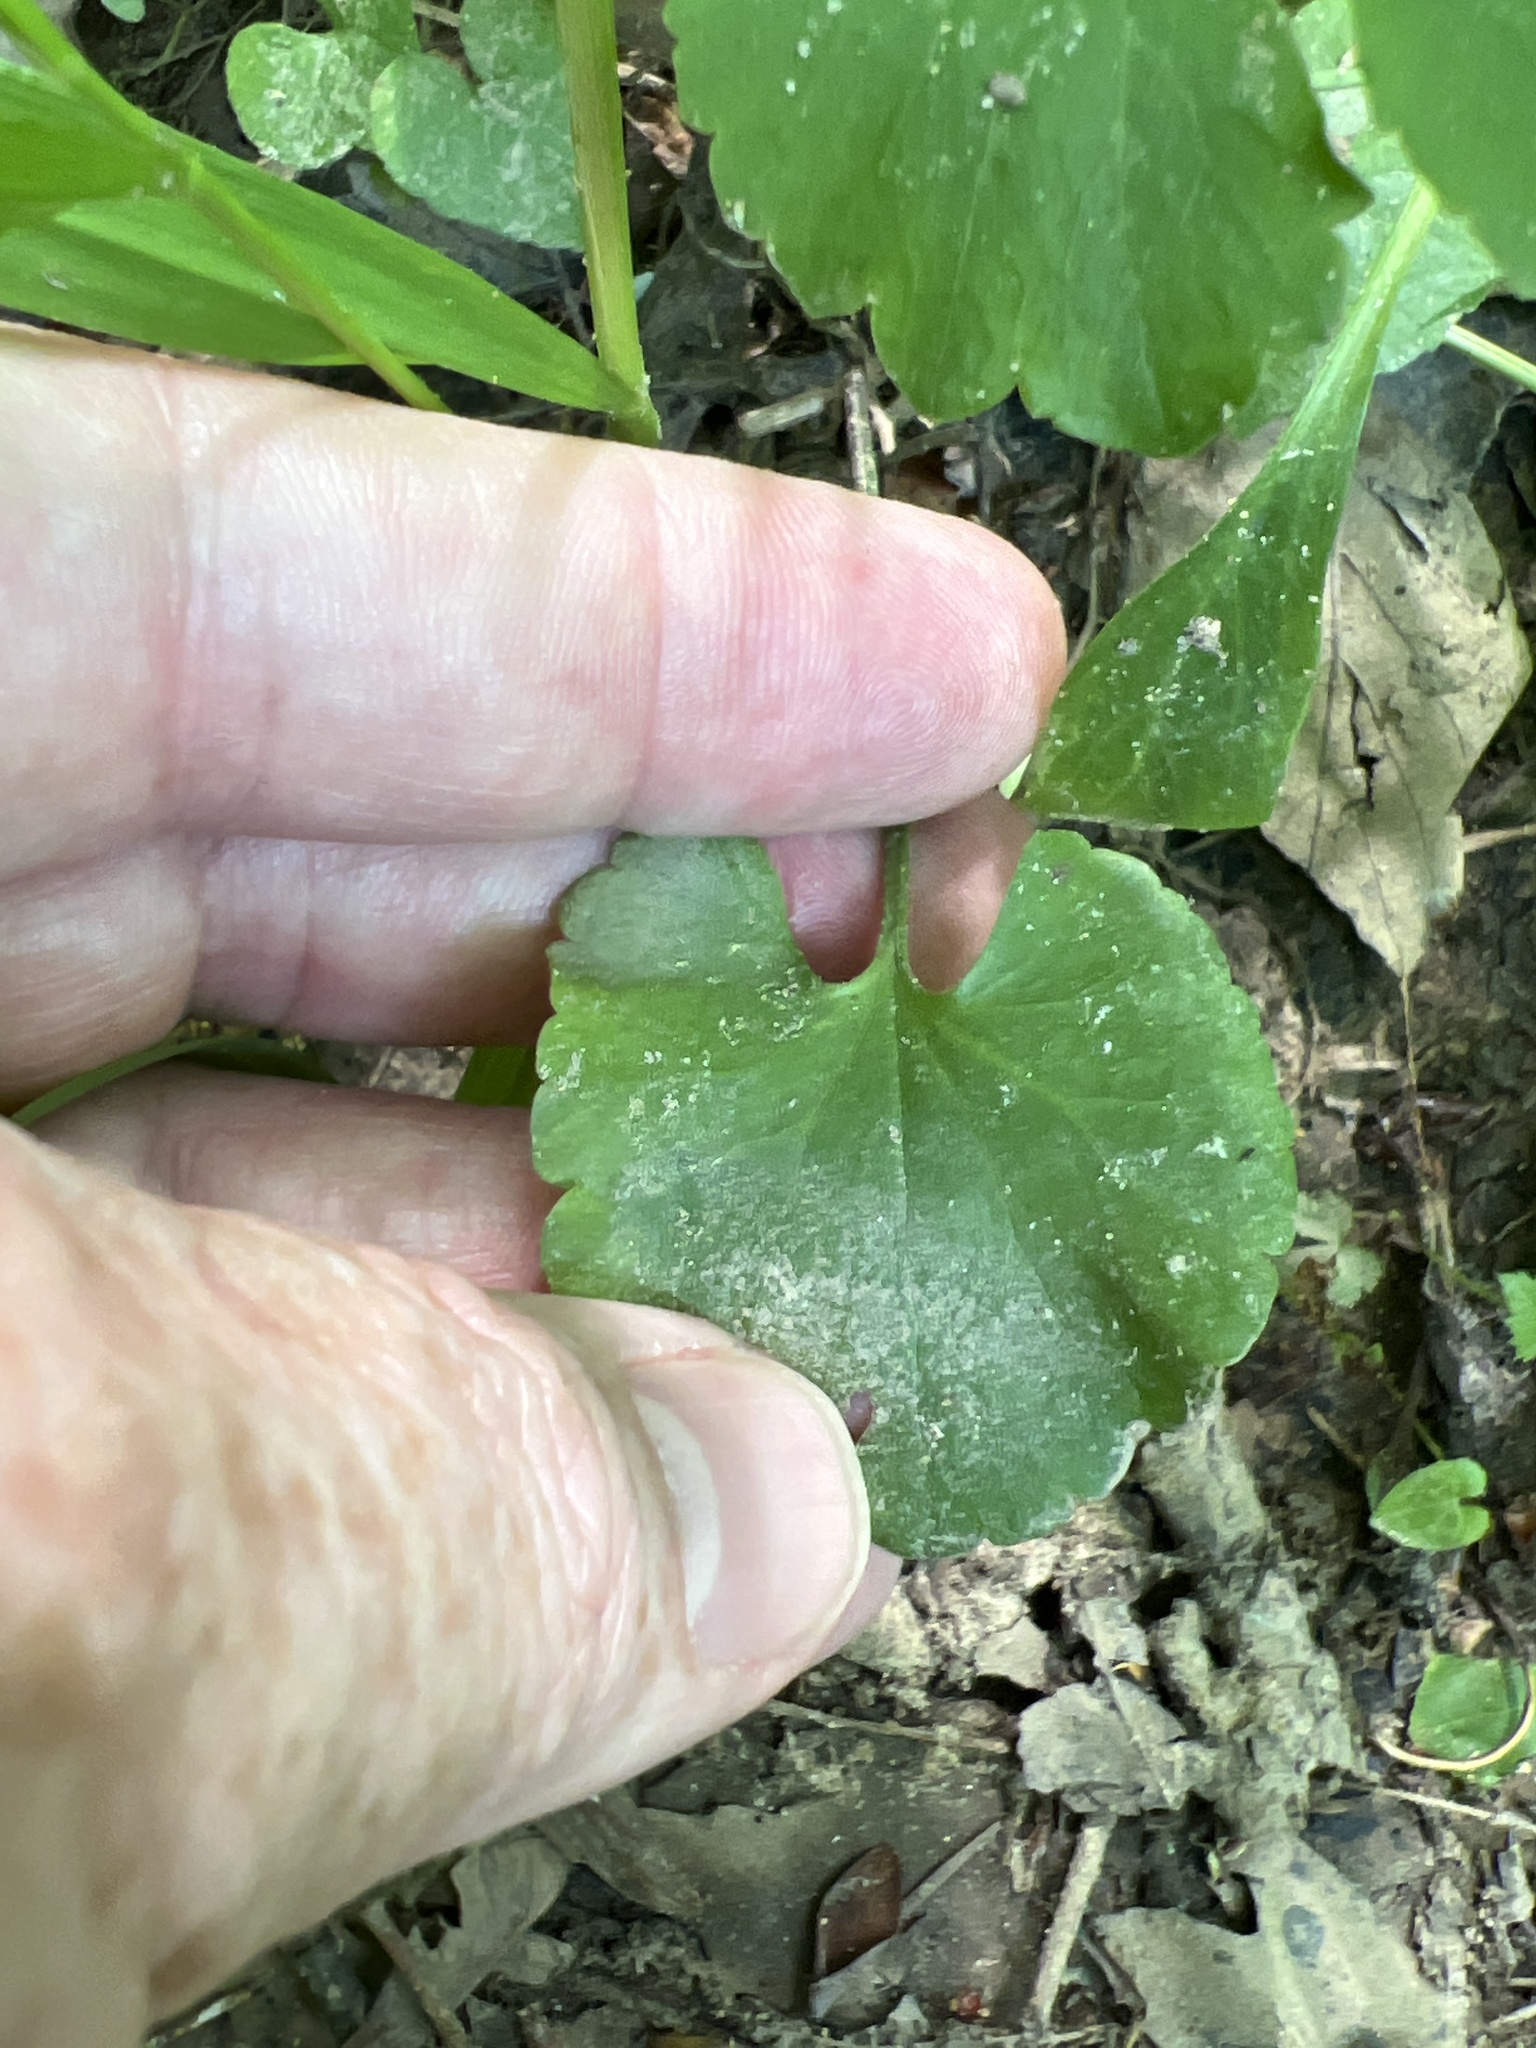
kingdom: Plantae
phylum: Tracheophyta
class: Magnoliopsida
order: Ranunculales
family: Ranunculaceae
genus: Ranunculus
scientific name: Ranunculus abortivus
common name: Early wood buttercup
